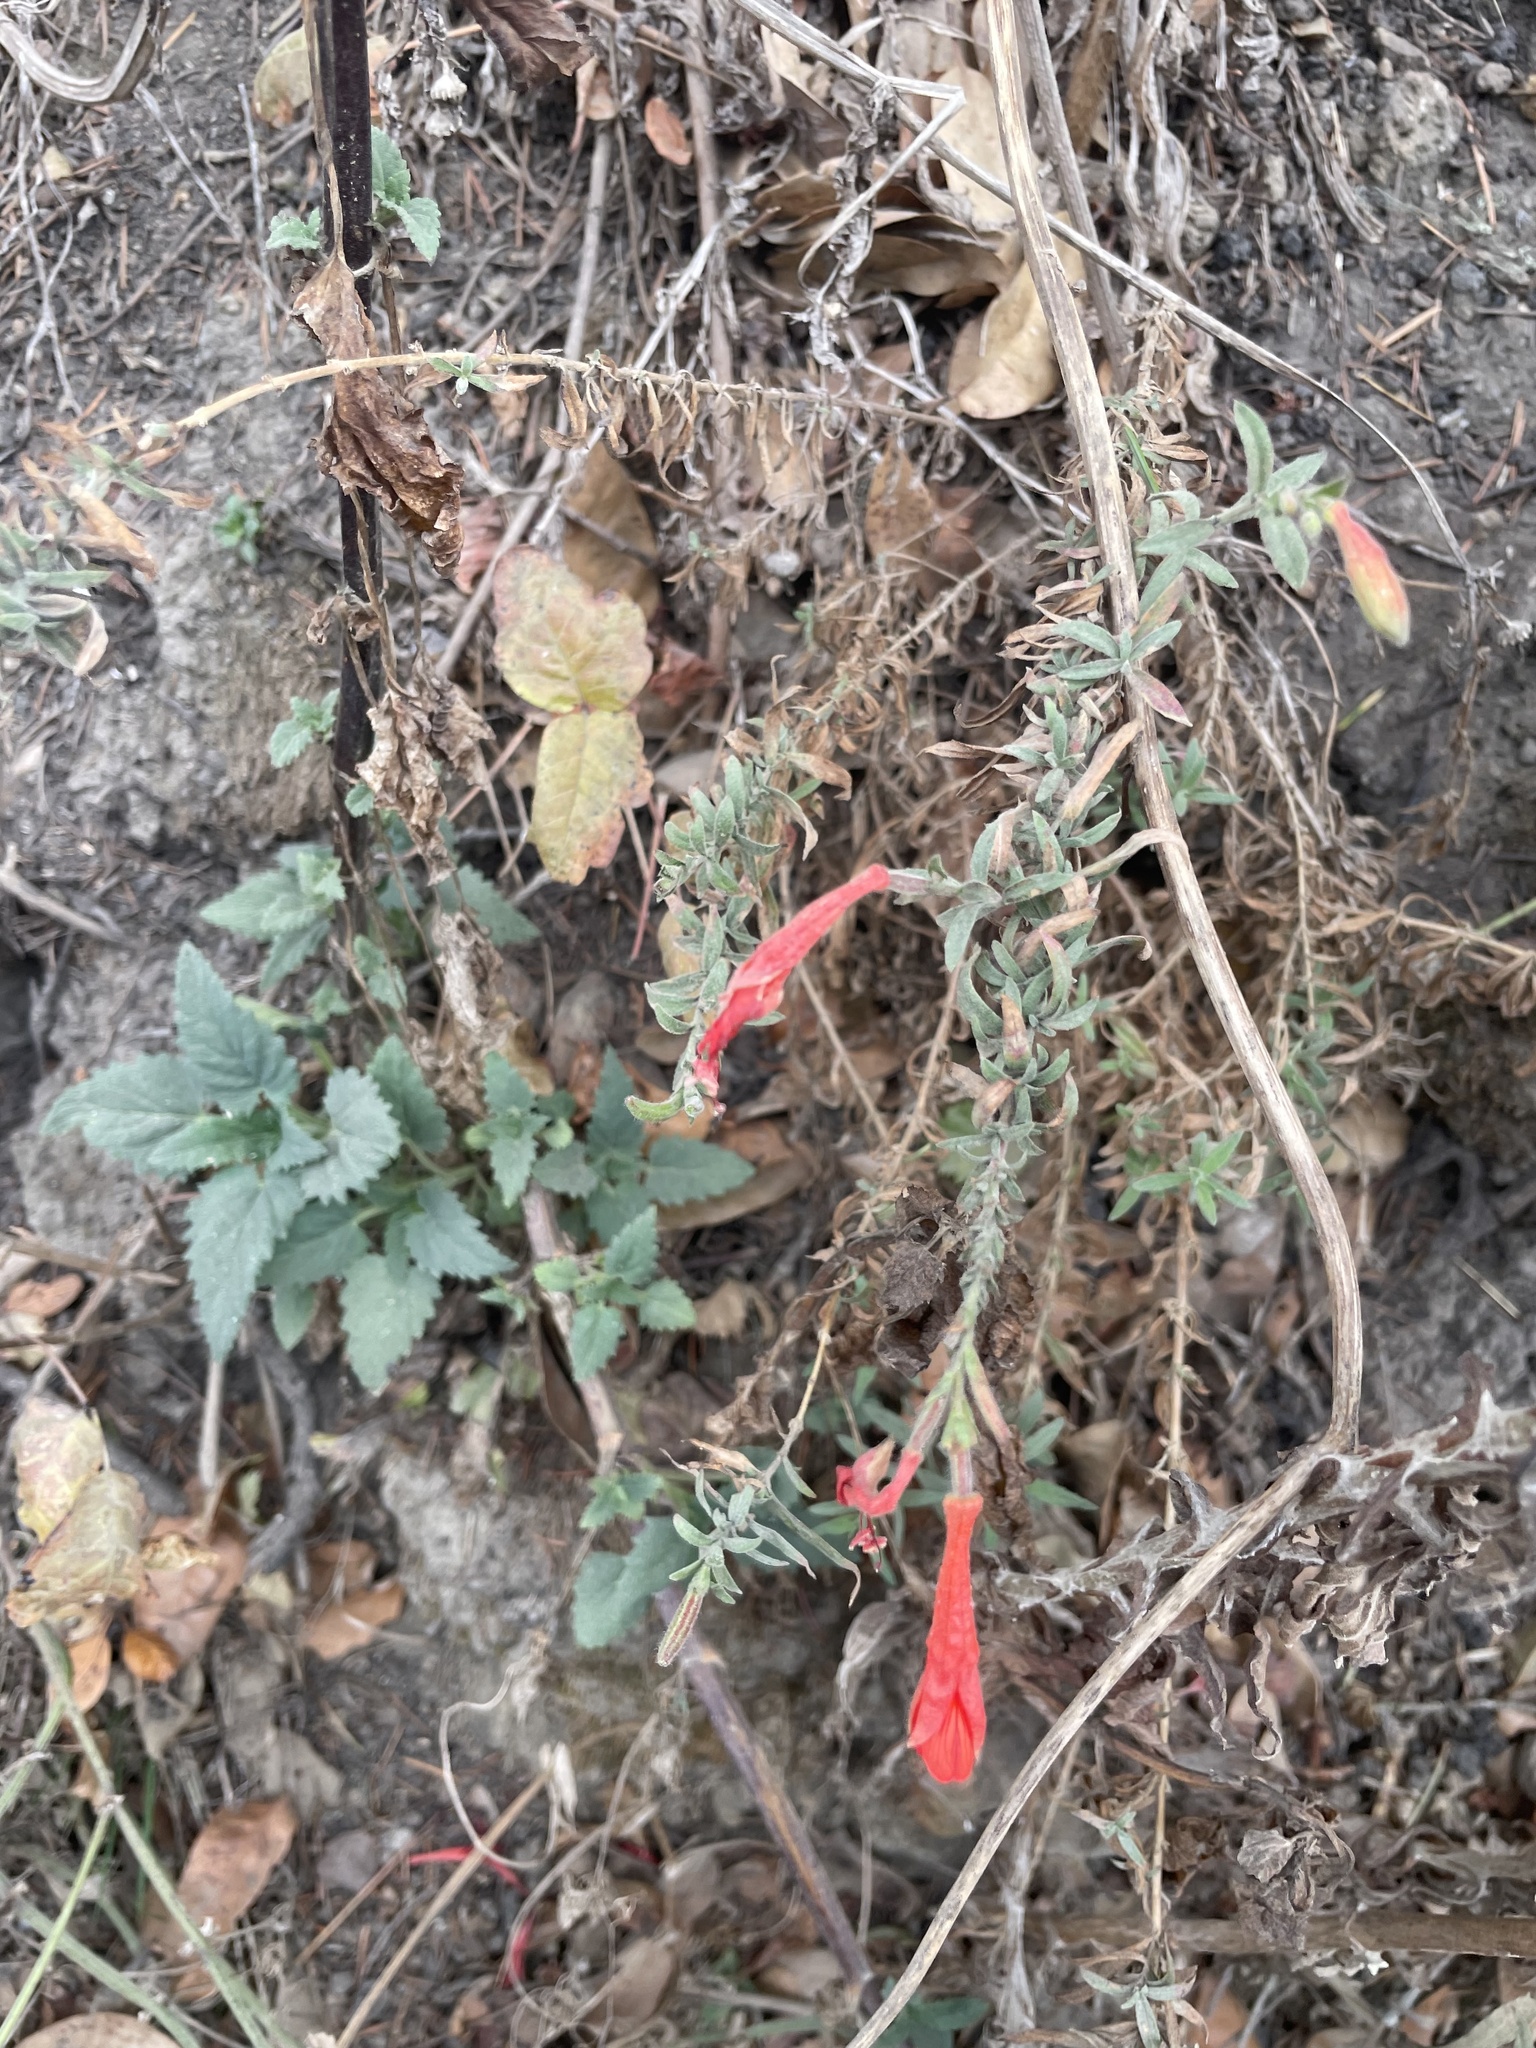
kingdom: Plantae
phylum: Tracheophyta
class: Magnoliopsida
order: Myrtales
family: Onagraceae
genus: Epilobium
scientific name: Epilobium canum
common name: California-fuchsia
